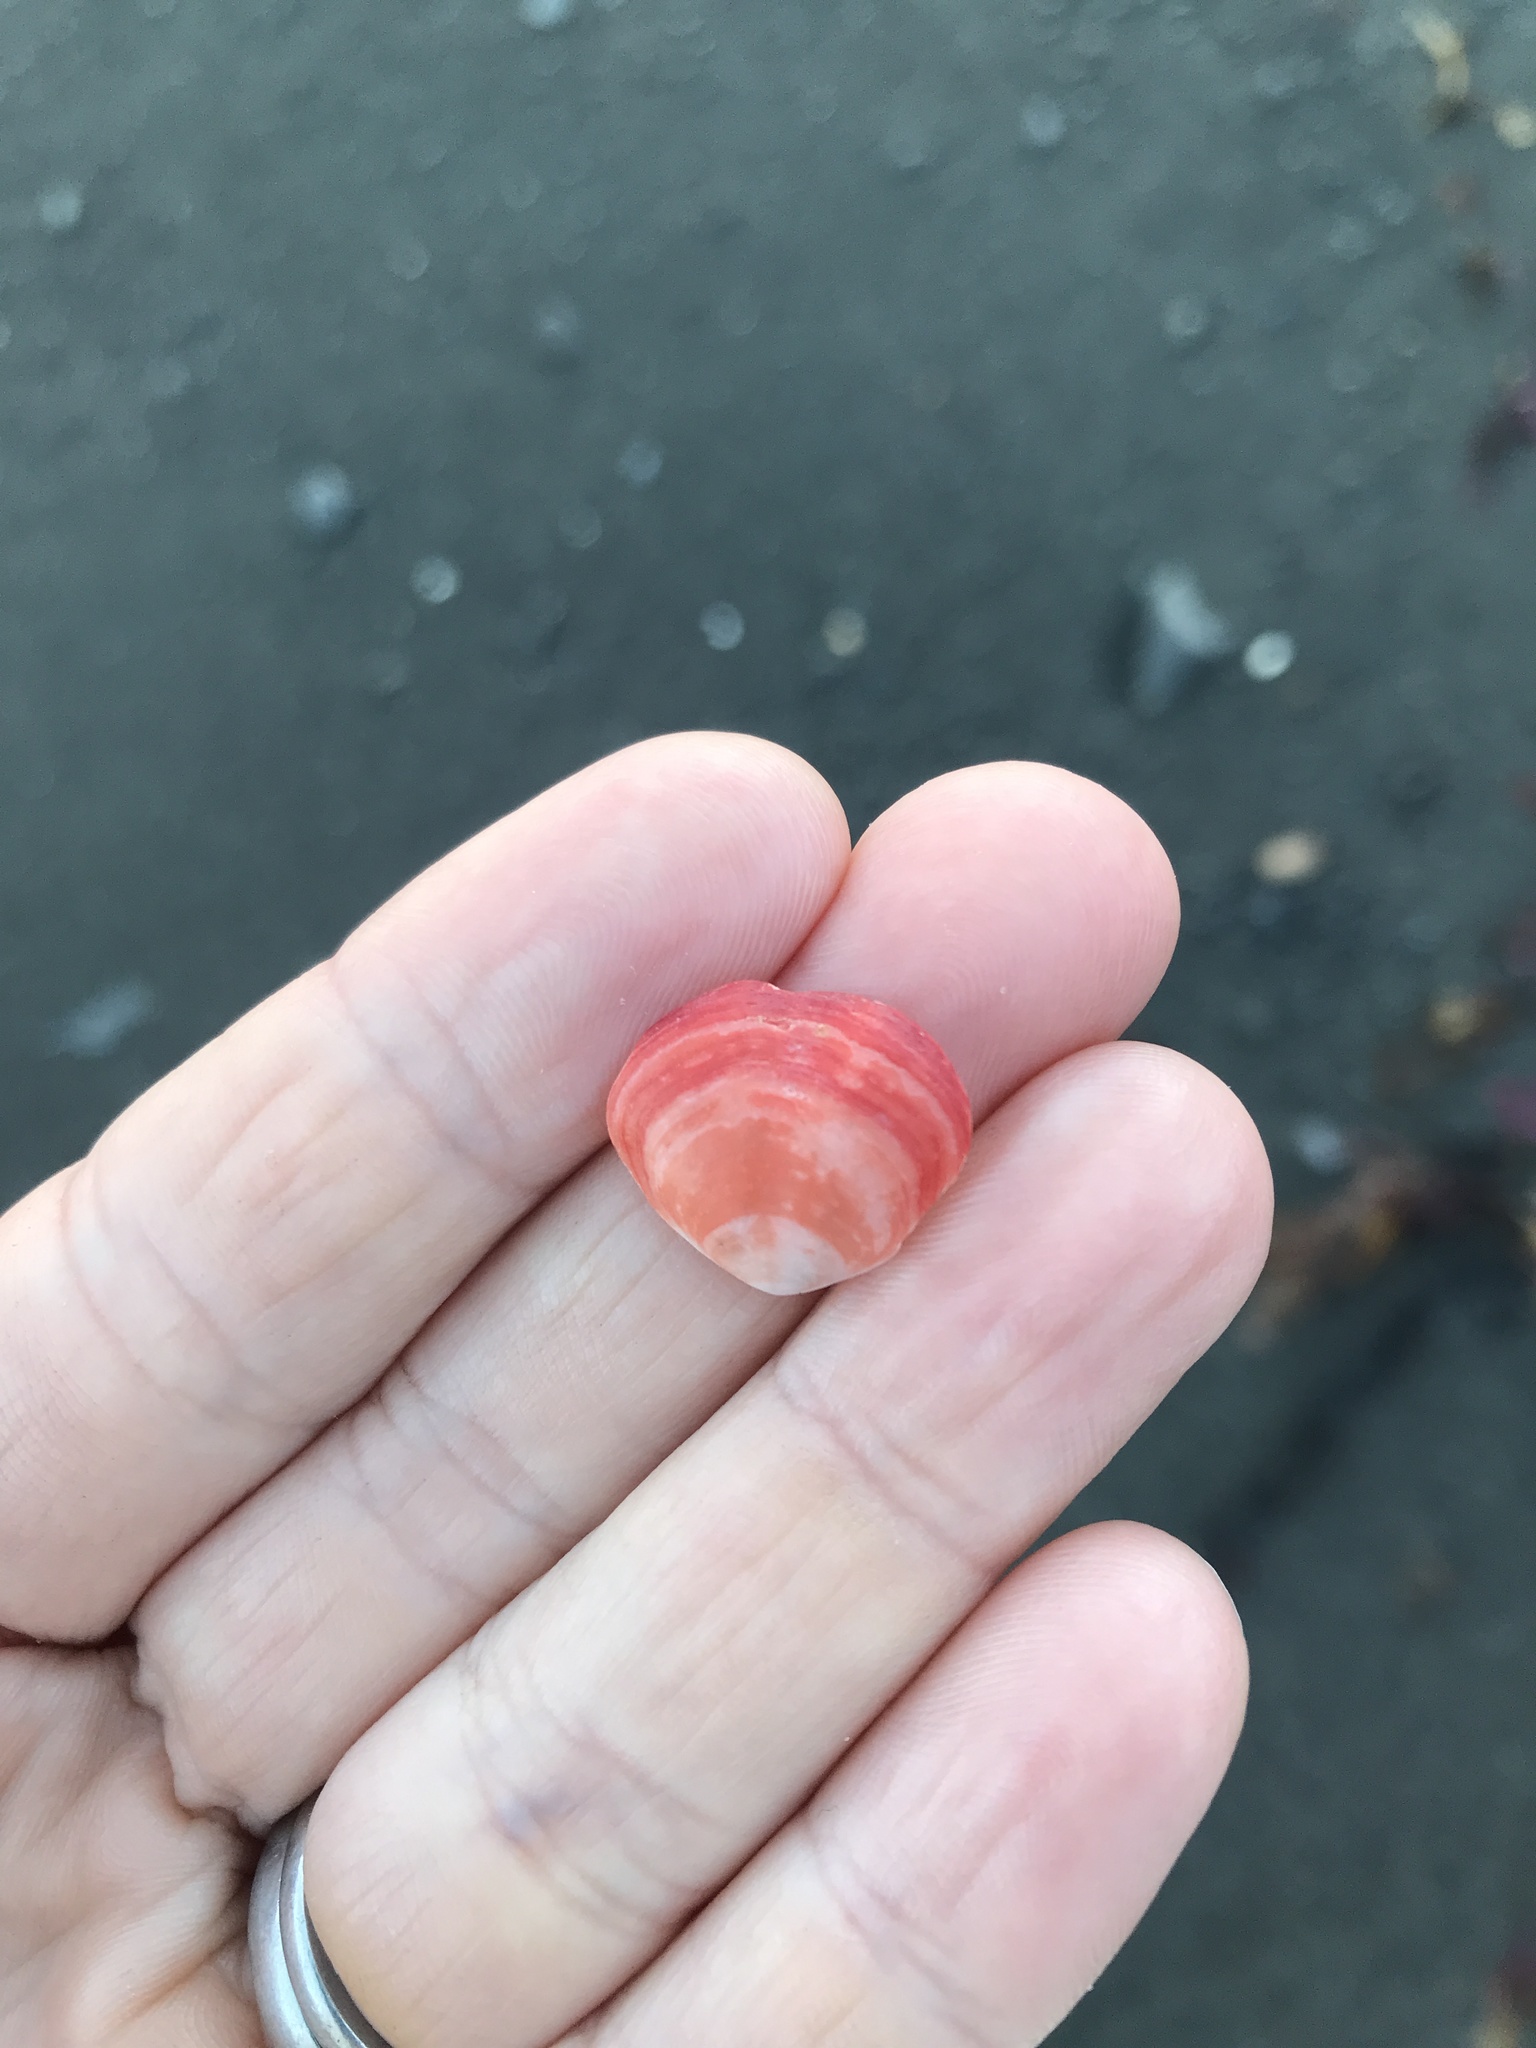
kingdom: Animalia
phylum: Brachiopoda
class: Rhynchonellata
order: Terebratulida
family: Terebratellidae
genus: Calloria
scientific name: Calloria inconspicua
